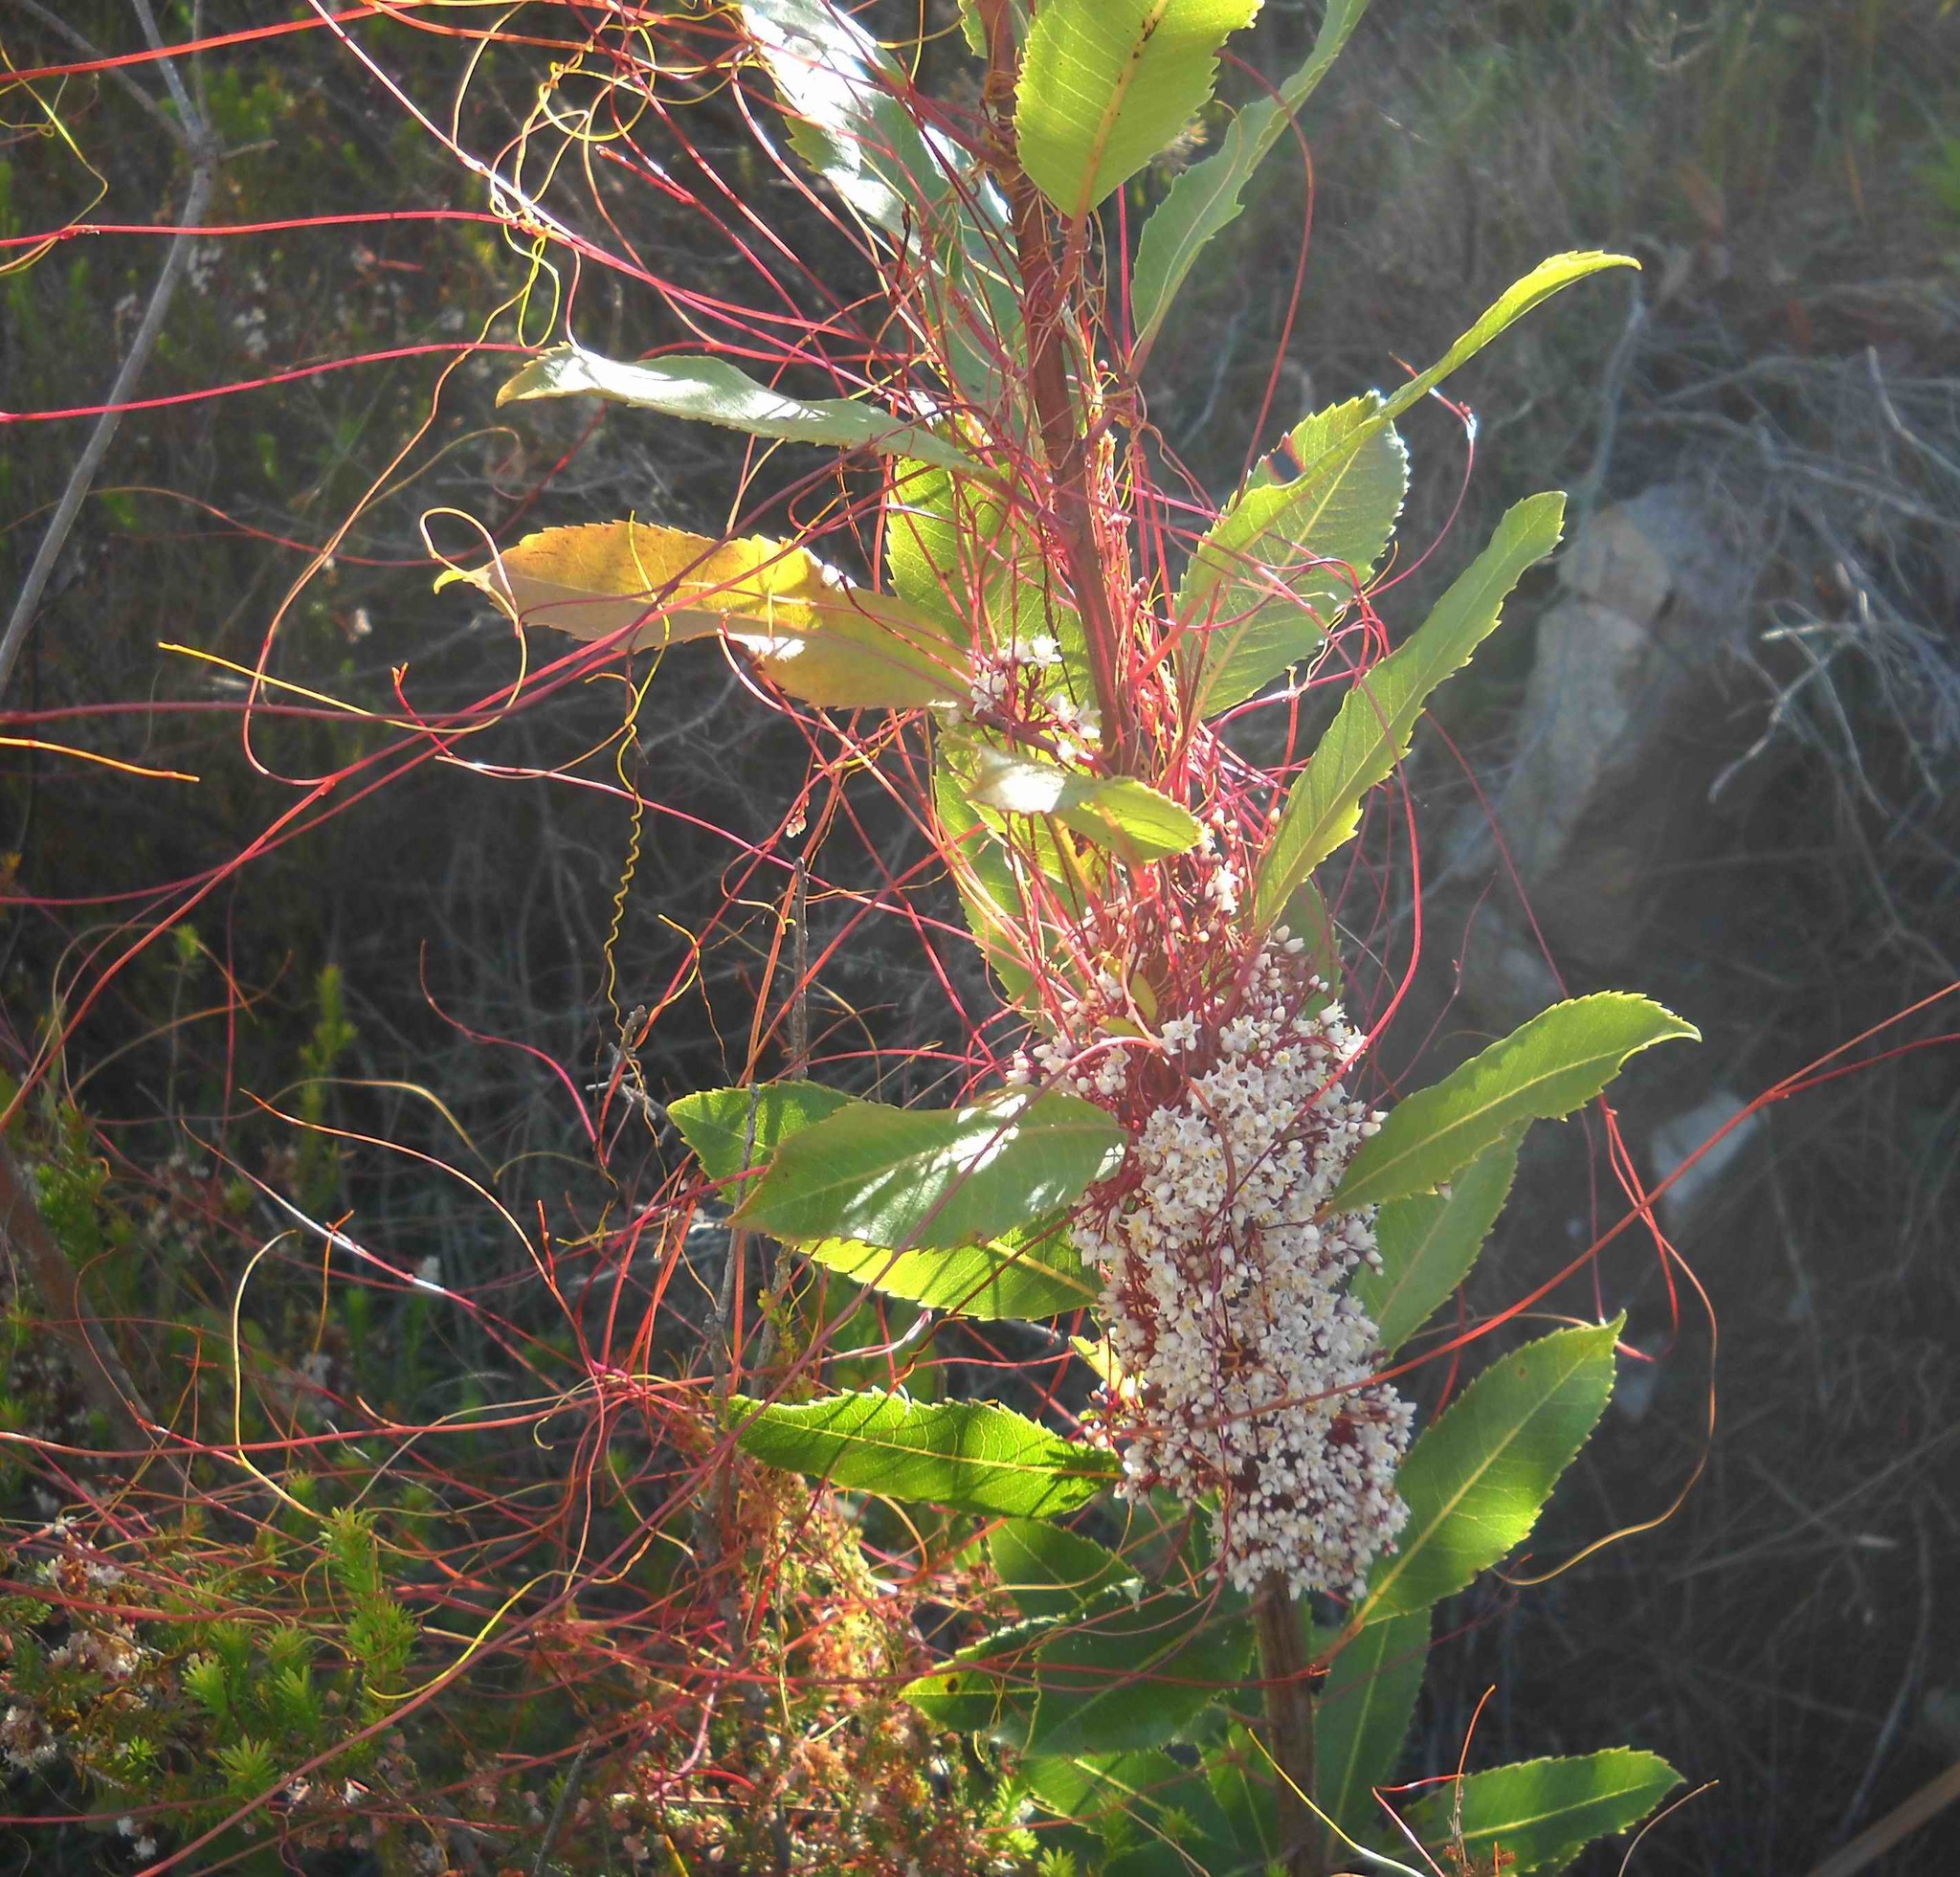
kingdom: Plantae
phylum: Tracheophyta
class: Magnoliopsida
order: Solanales
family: Convolvulaceae
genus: Cuscuta
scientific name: Cuscuta africana
